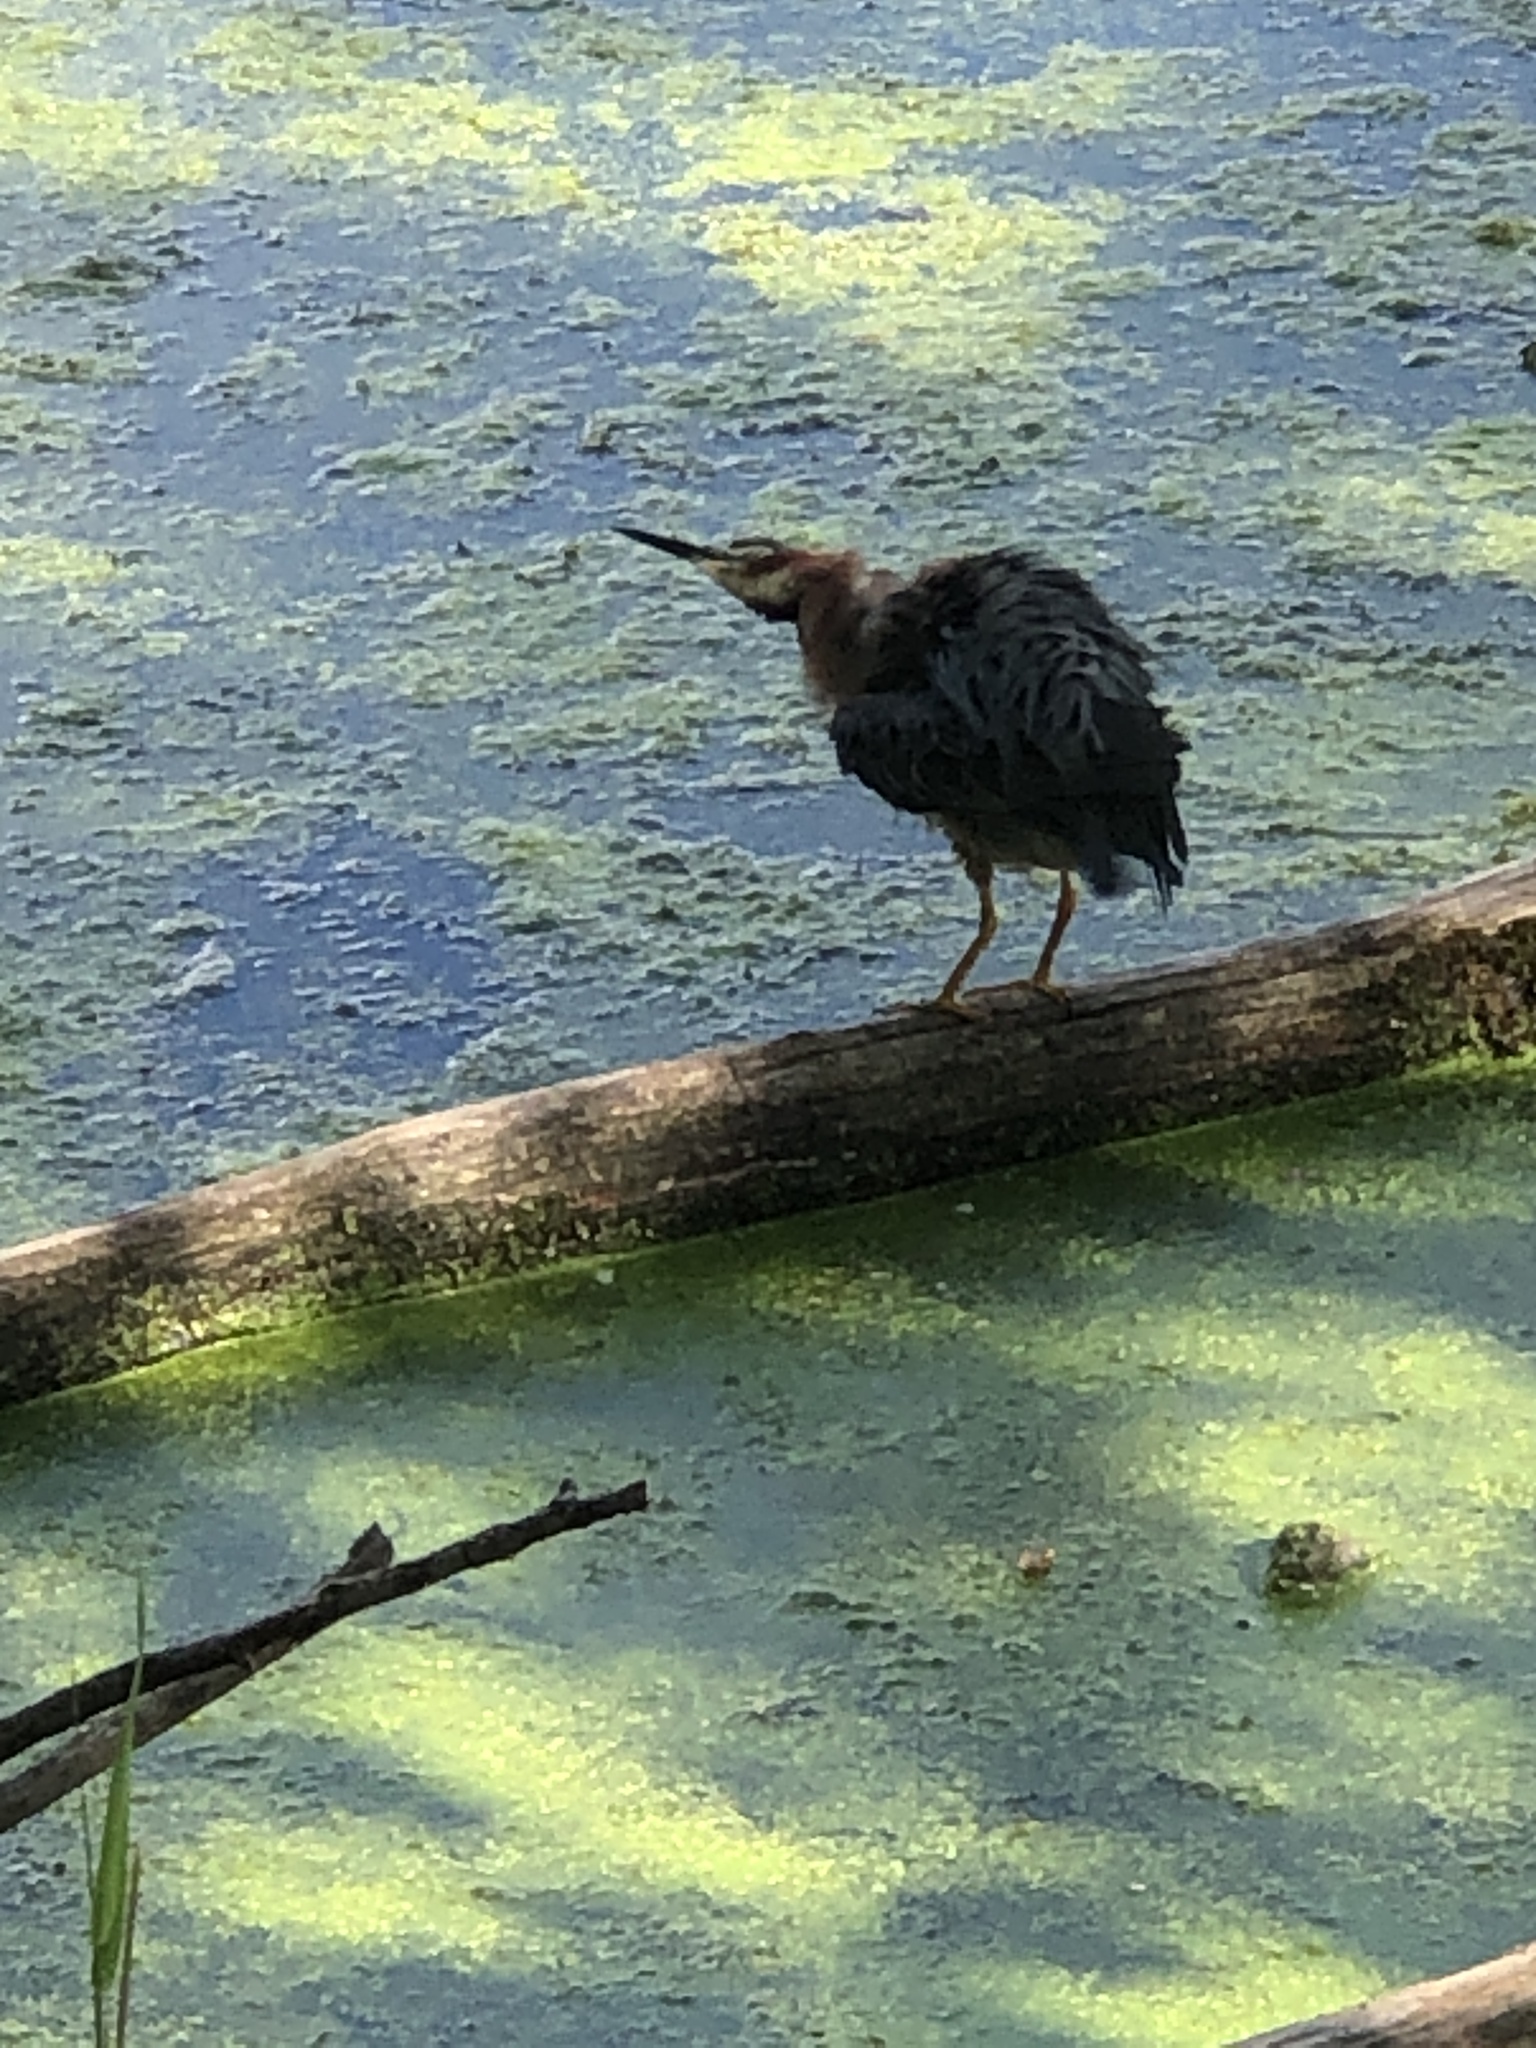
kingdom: Animalia
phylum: Chordata
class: Aves
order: Pelecaniformes
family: Ardeidae
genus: Butorides
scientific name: Butorides virescens
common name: Green heron
